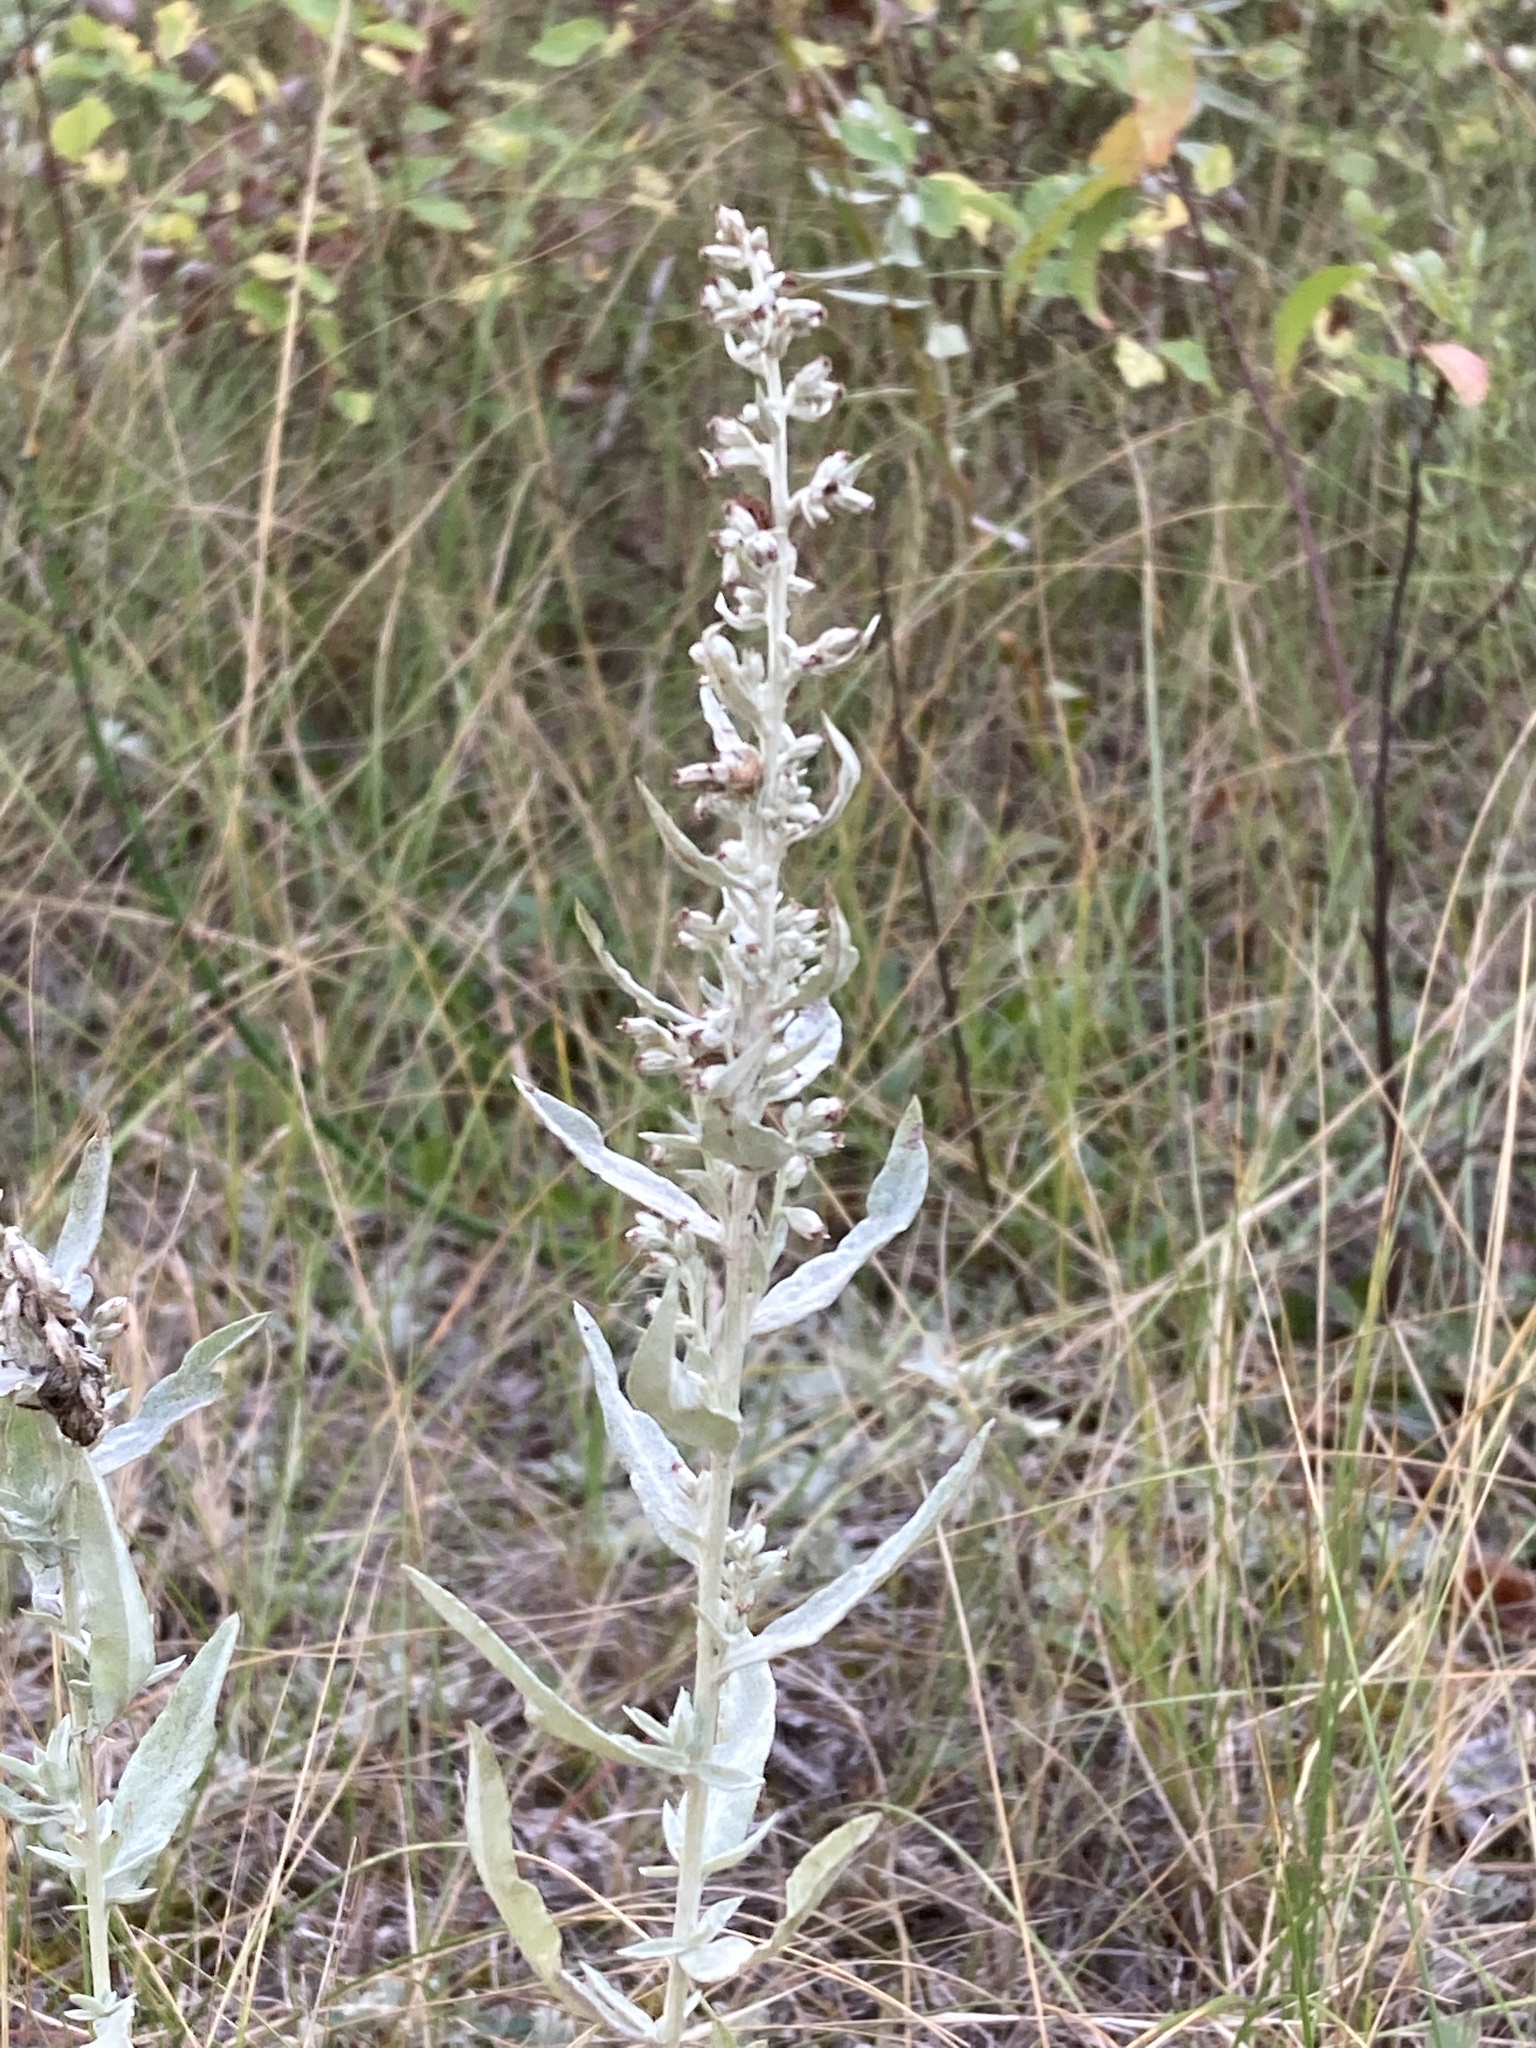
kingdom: Plantae
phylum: Tracheophyta
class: Magnoliopsida
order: Asterales
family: Asteraceae
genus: Artemisia
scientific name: Artemisia ludoviciana
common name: Western mugwort
